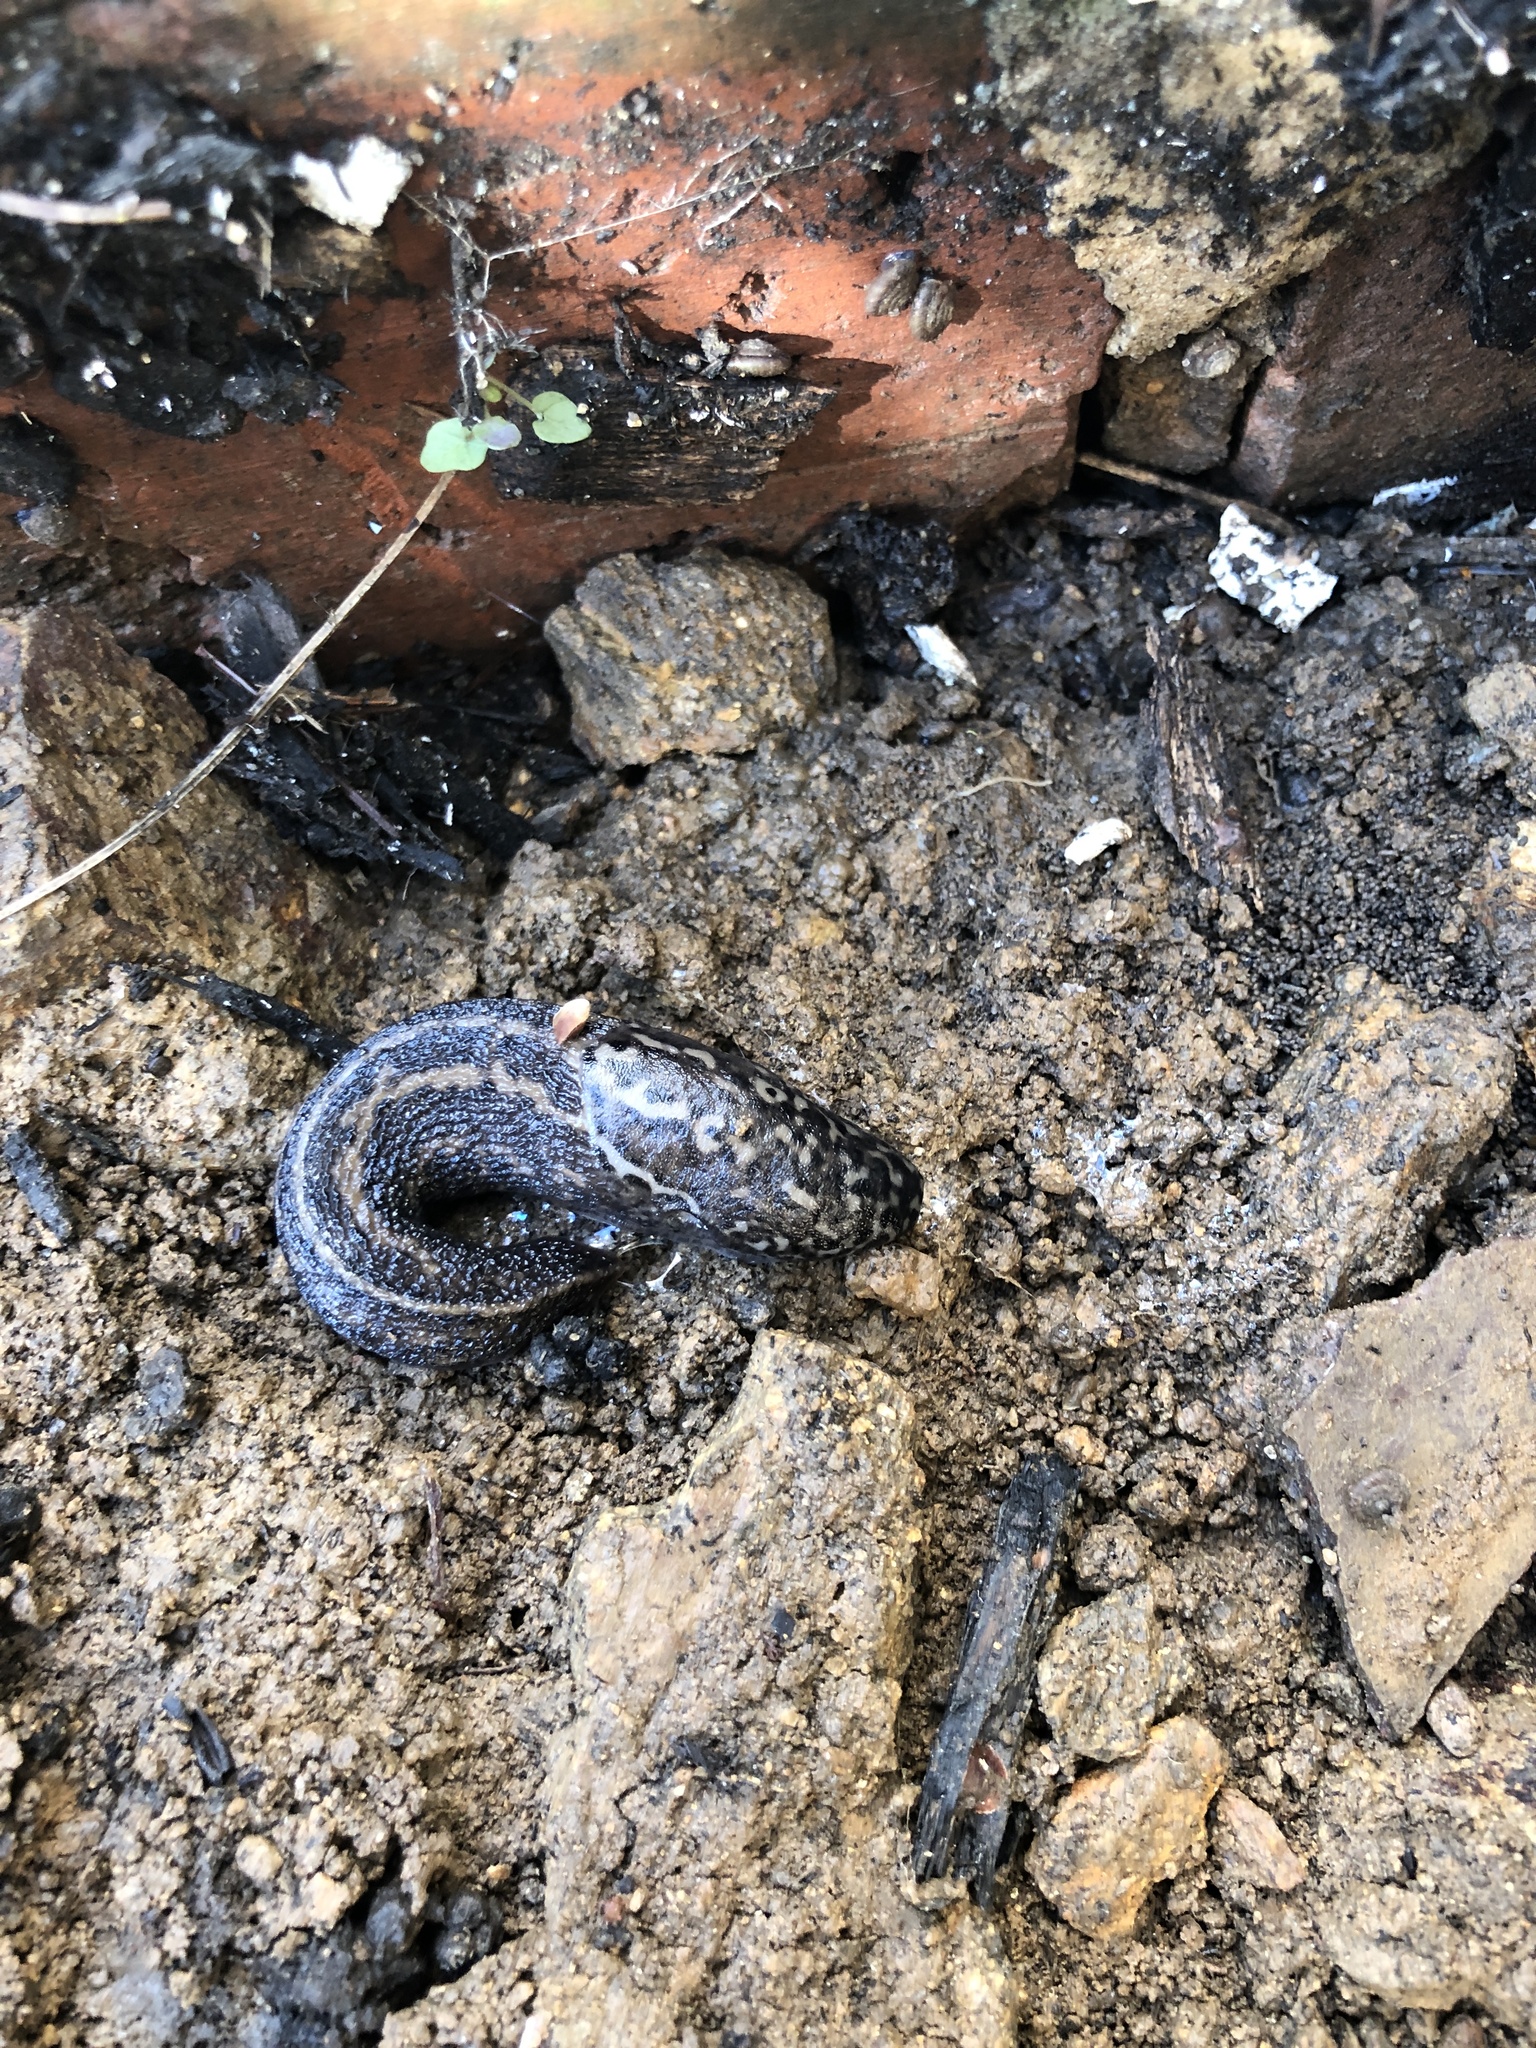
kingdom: Animalia
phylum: Mollusca
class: Gastropoda
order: Stylommatophora
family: Limacidae
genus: Limax
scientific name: Limax maximus
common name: Great grey slug
